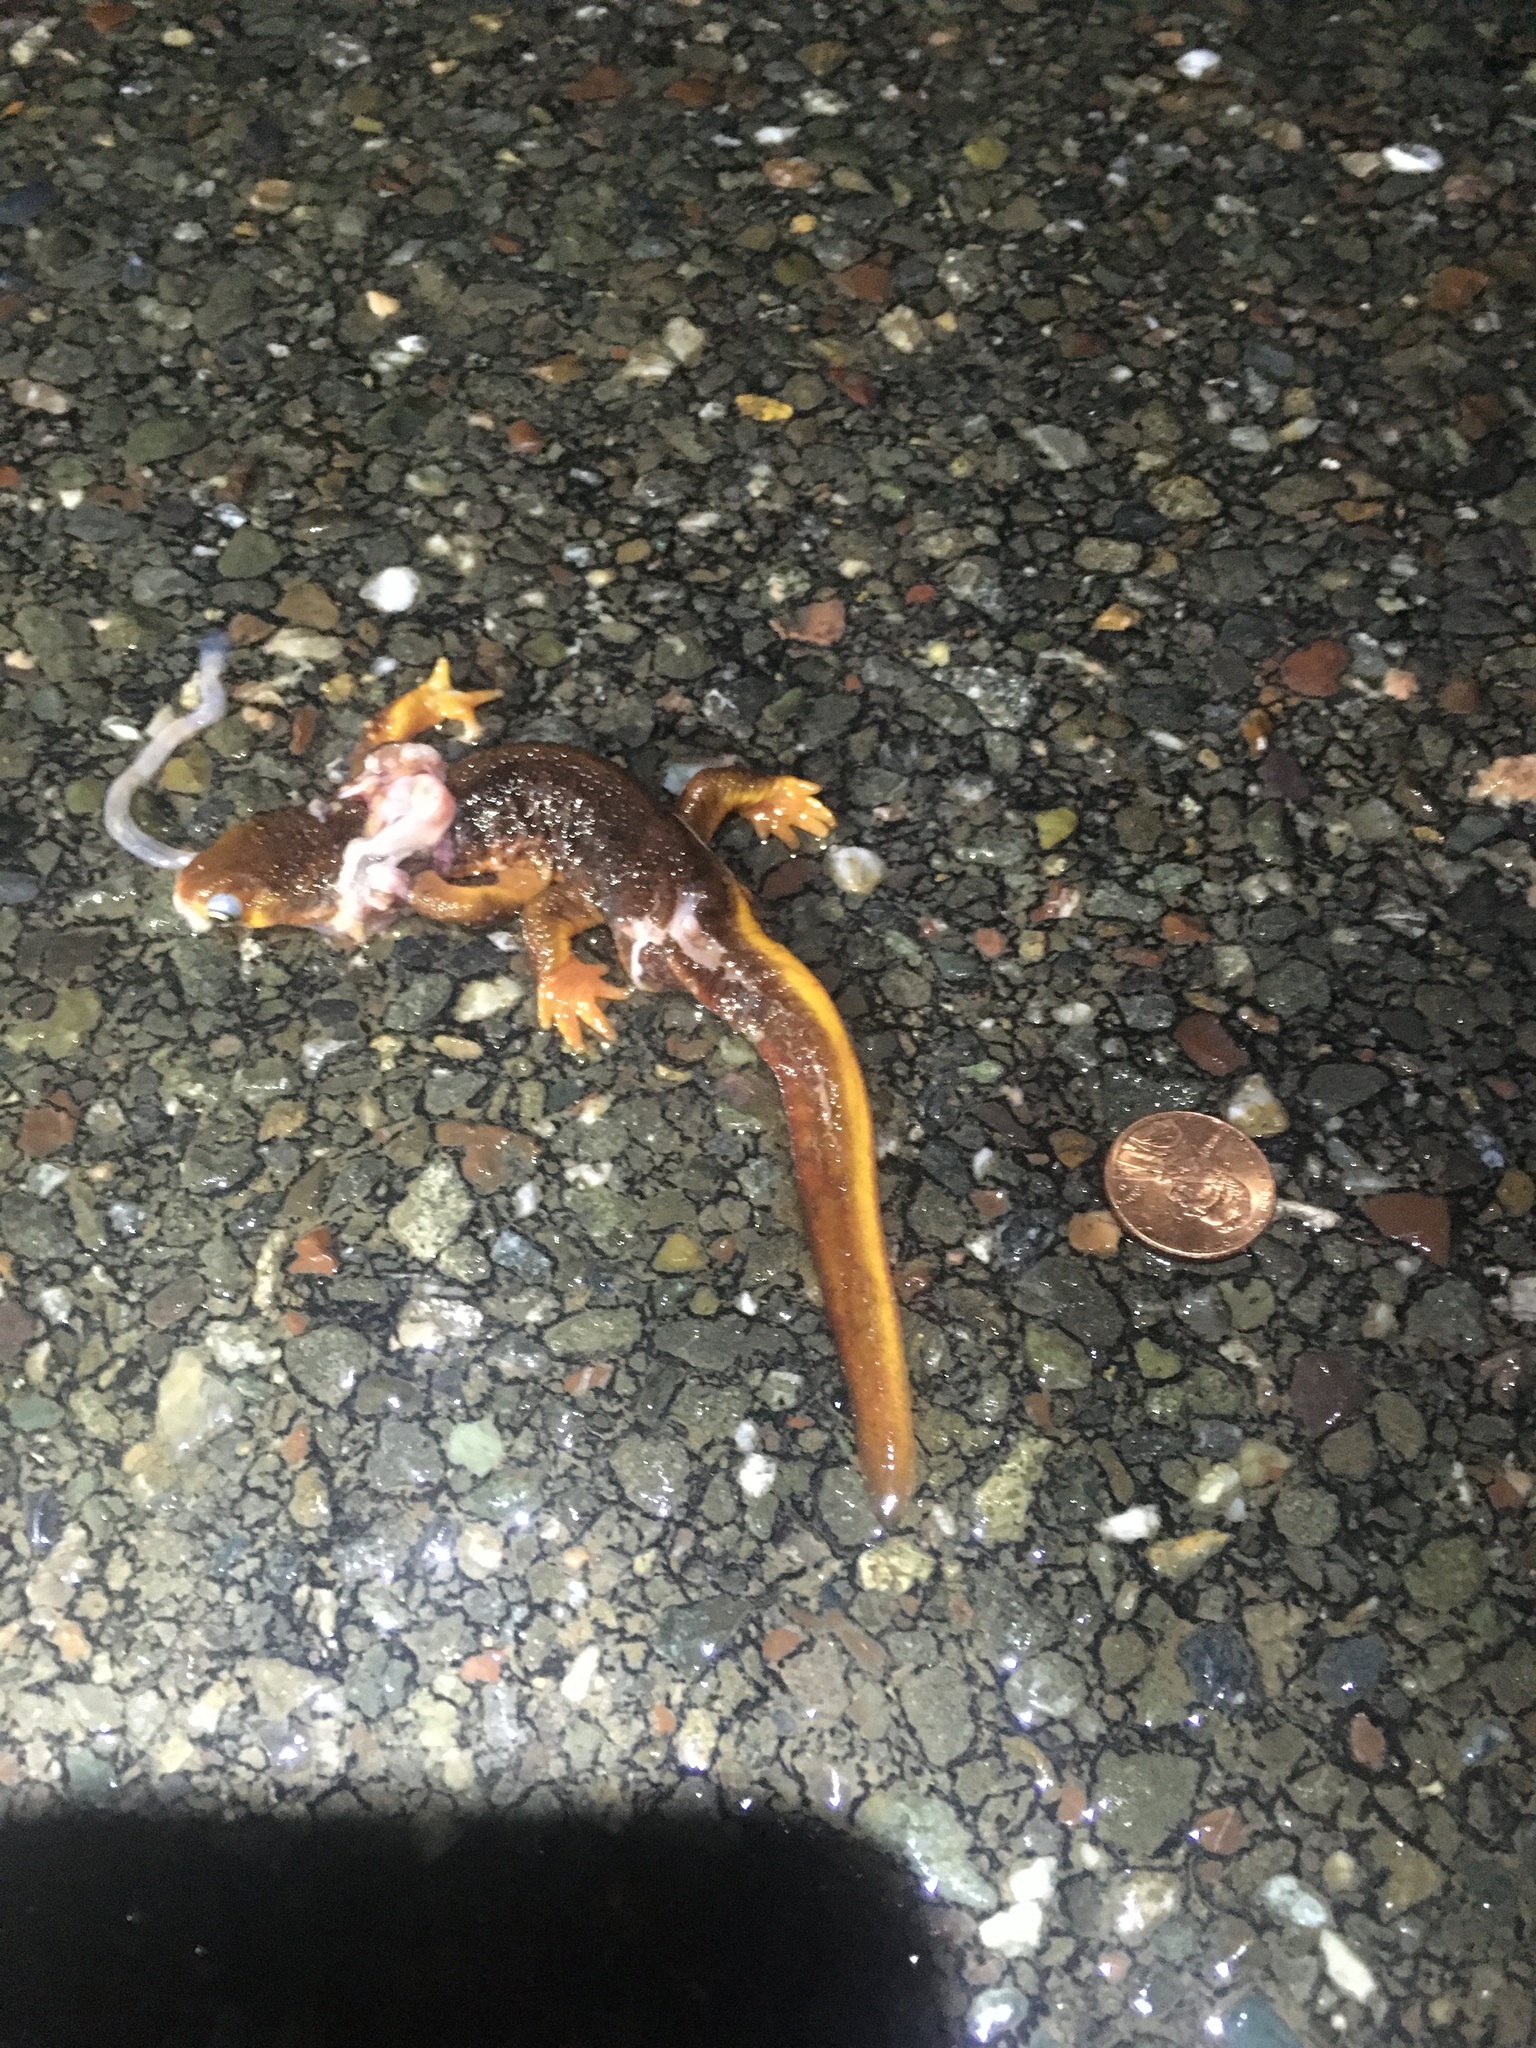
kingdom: Animalia
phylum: Chordata
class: Amphibia
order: Caudata
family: Salamandridae
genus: Taricha
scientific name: Taricha
